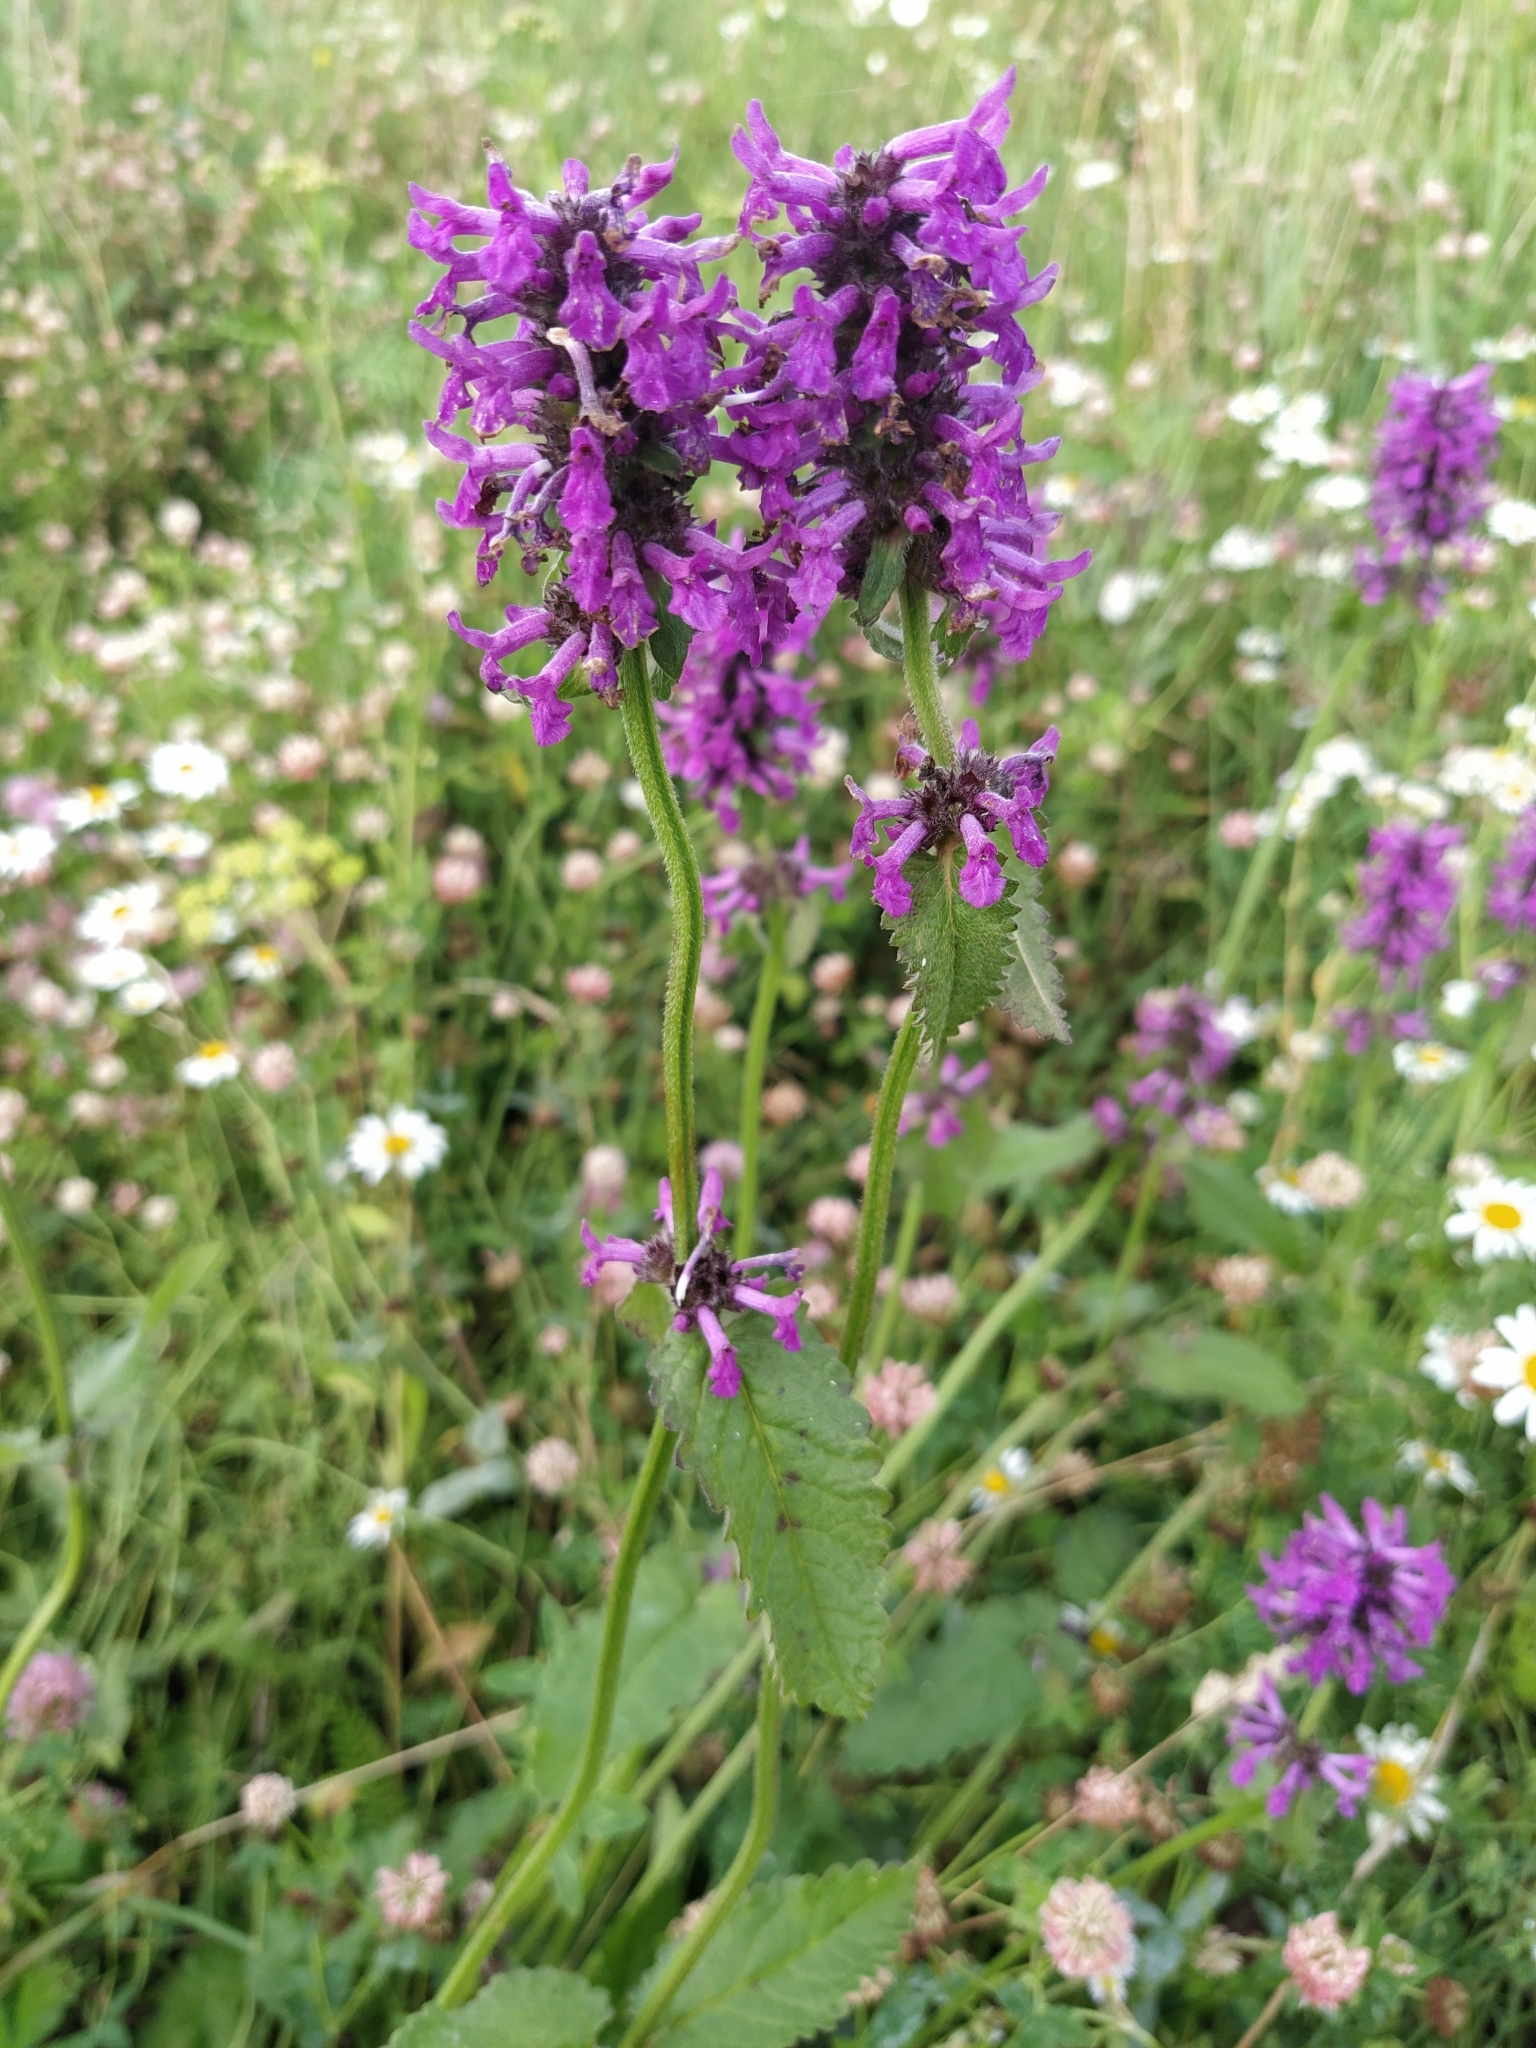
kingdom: Plantae
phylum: Tracheophyta
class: Magnoliopsida
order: Lamiales
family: Lamiaceae
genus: Betonica
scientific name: Betonica officinalis
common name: Bishop's-wort
